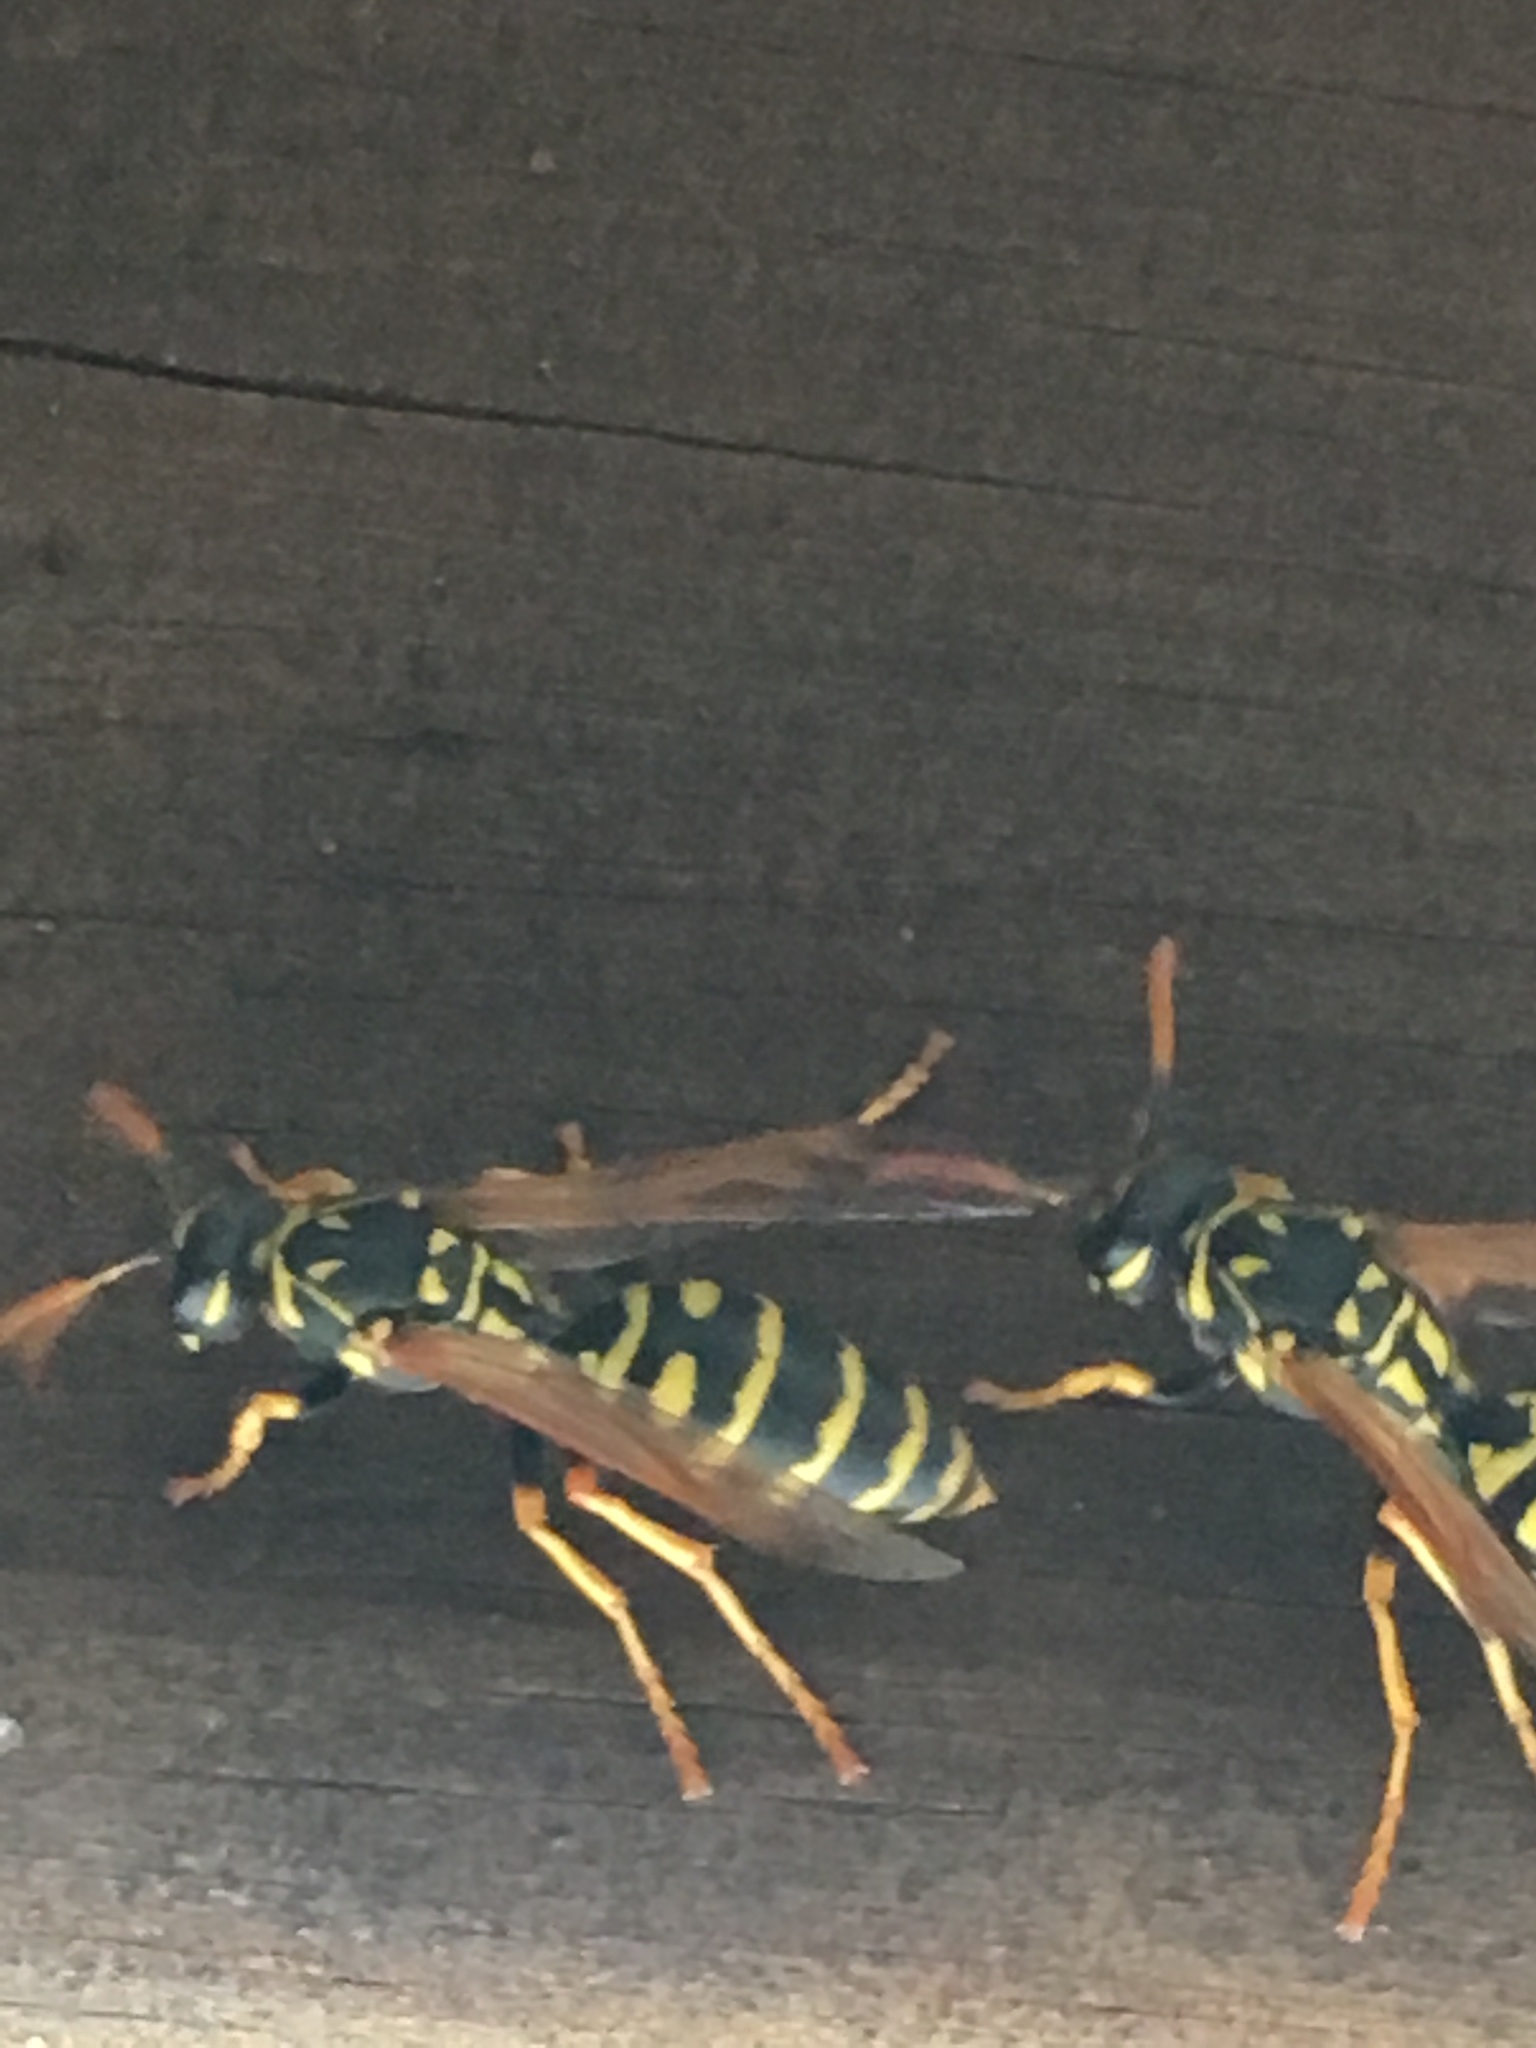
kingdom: Animalia
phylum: Arthropoda
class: Insecta
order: Hymenoptera
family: Eumenidae
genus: Polistes
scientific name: Polistes dominula
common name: Paper wasp
